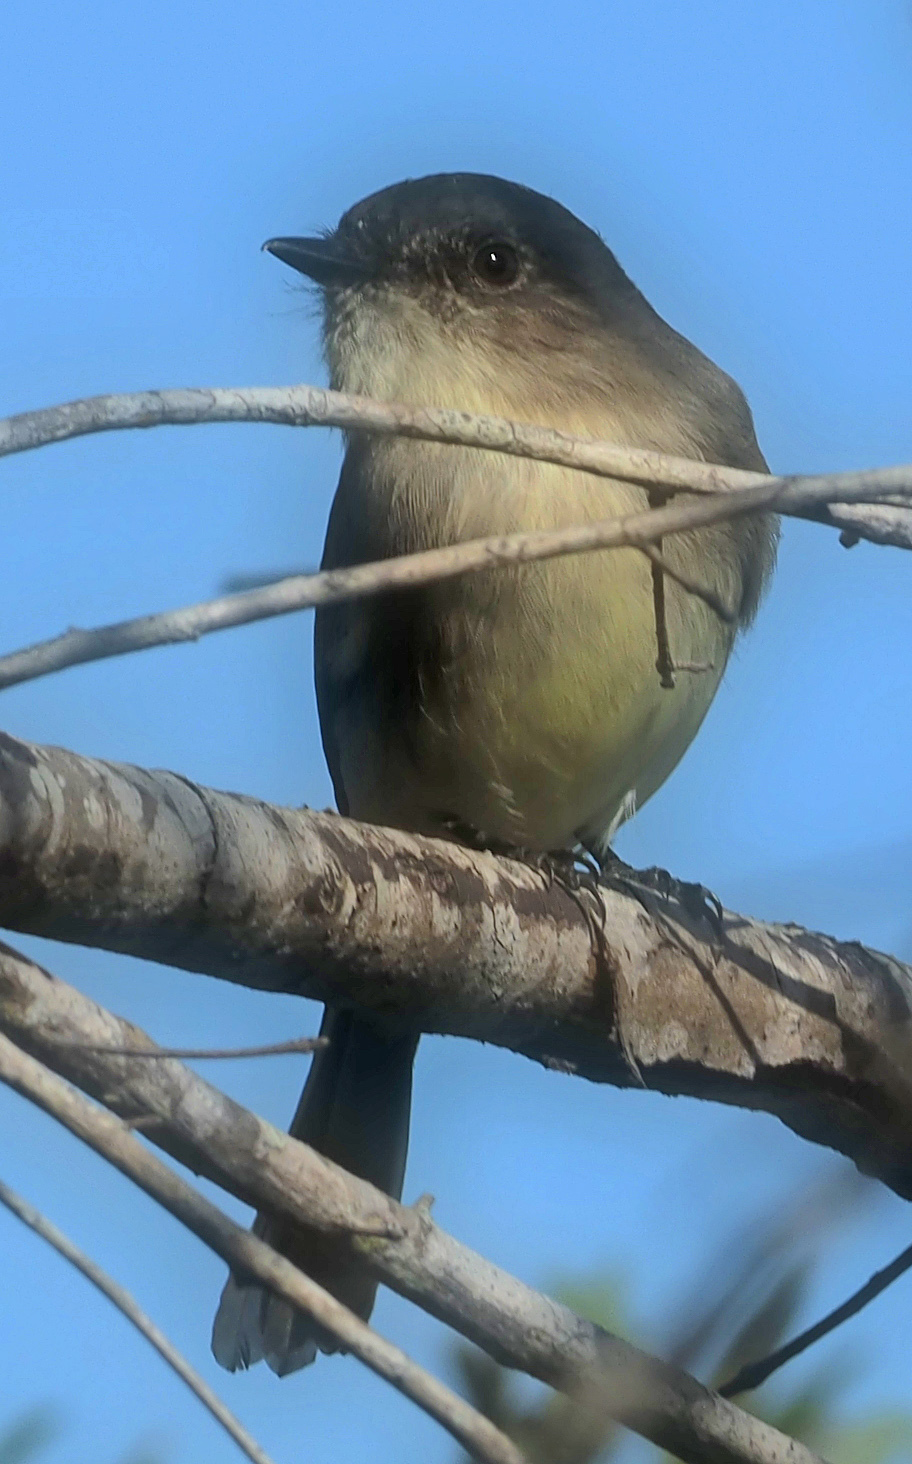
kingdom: Animalia
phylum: Chordata
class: Aves
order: Passeriformes
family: Tyrannidae
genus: Sayornis
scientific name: Sayornis phoebe
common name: Eastern phoebe
